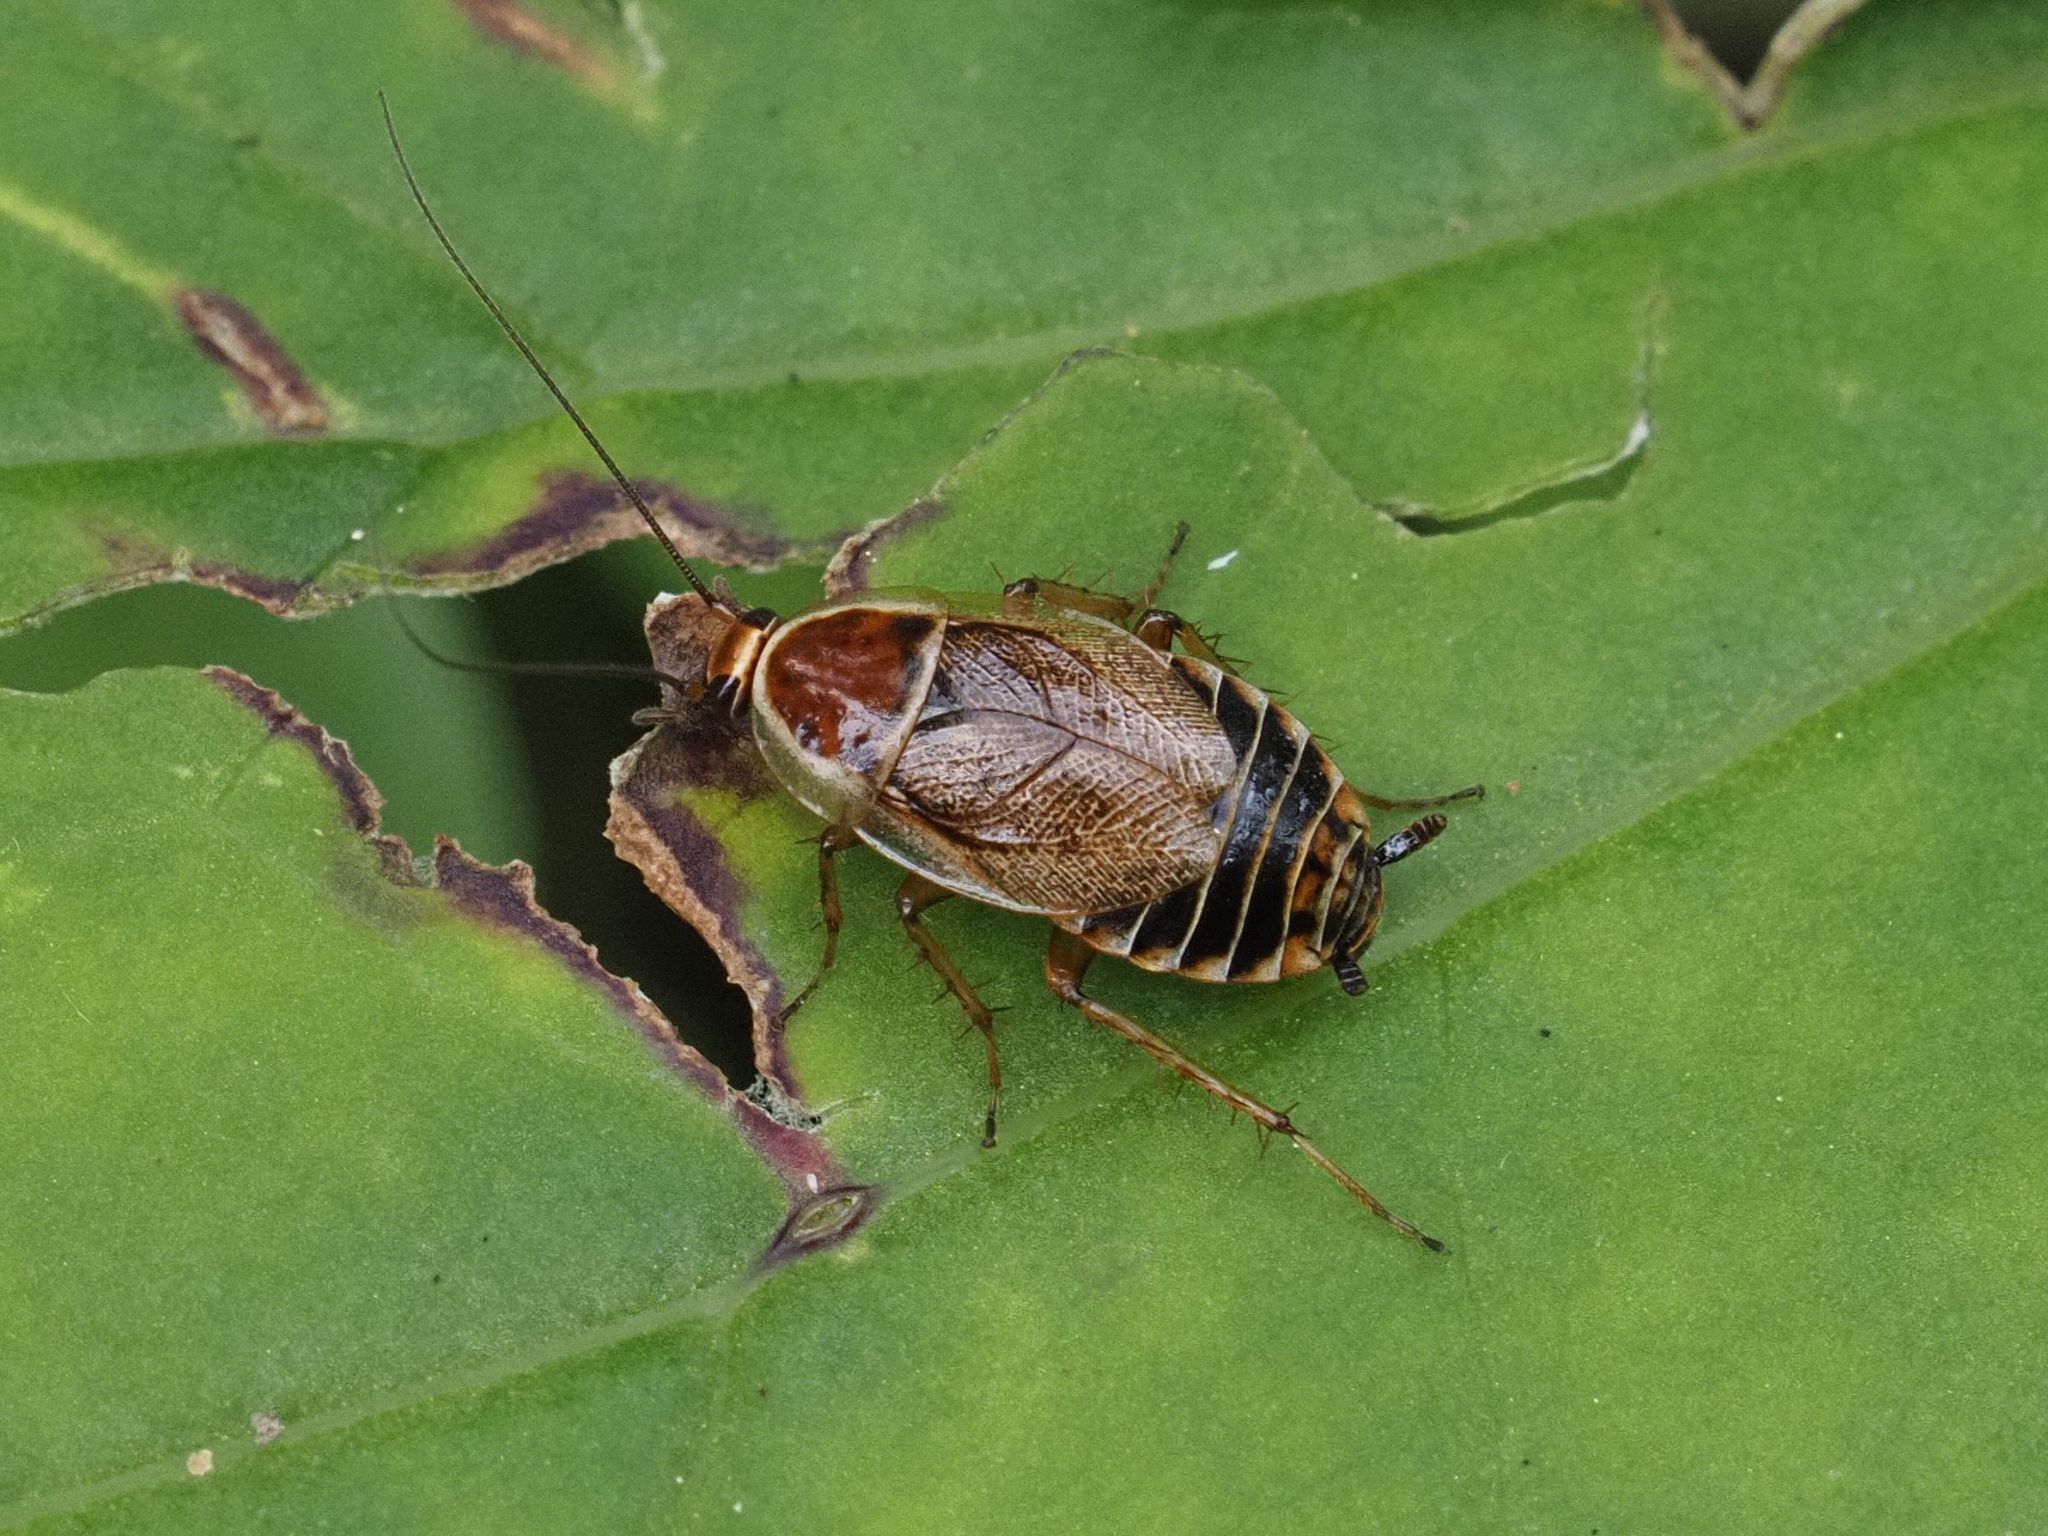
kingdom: Animalia
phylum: Arthropoda
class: Insecta
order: Blattodea
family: Ectobiidae
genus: Ectobius
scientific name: Ectobius sylvestris
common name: Forest cockroach
